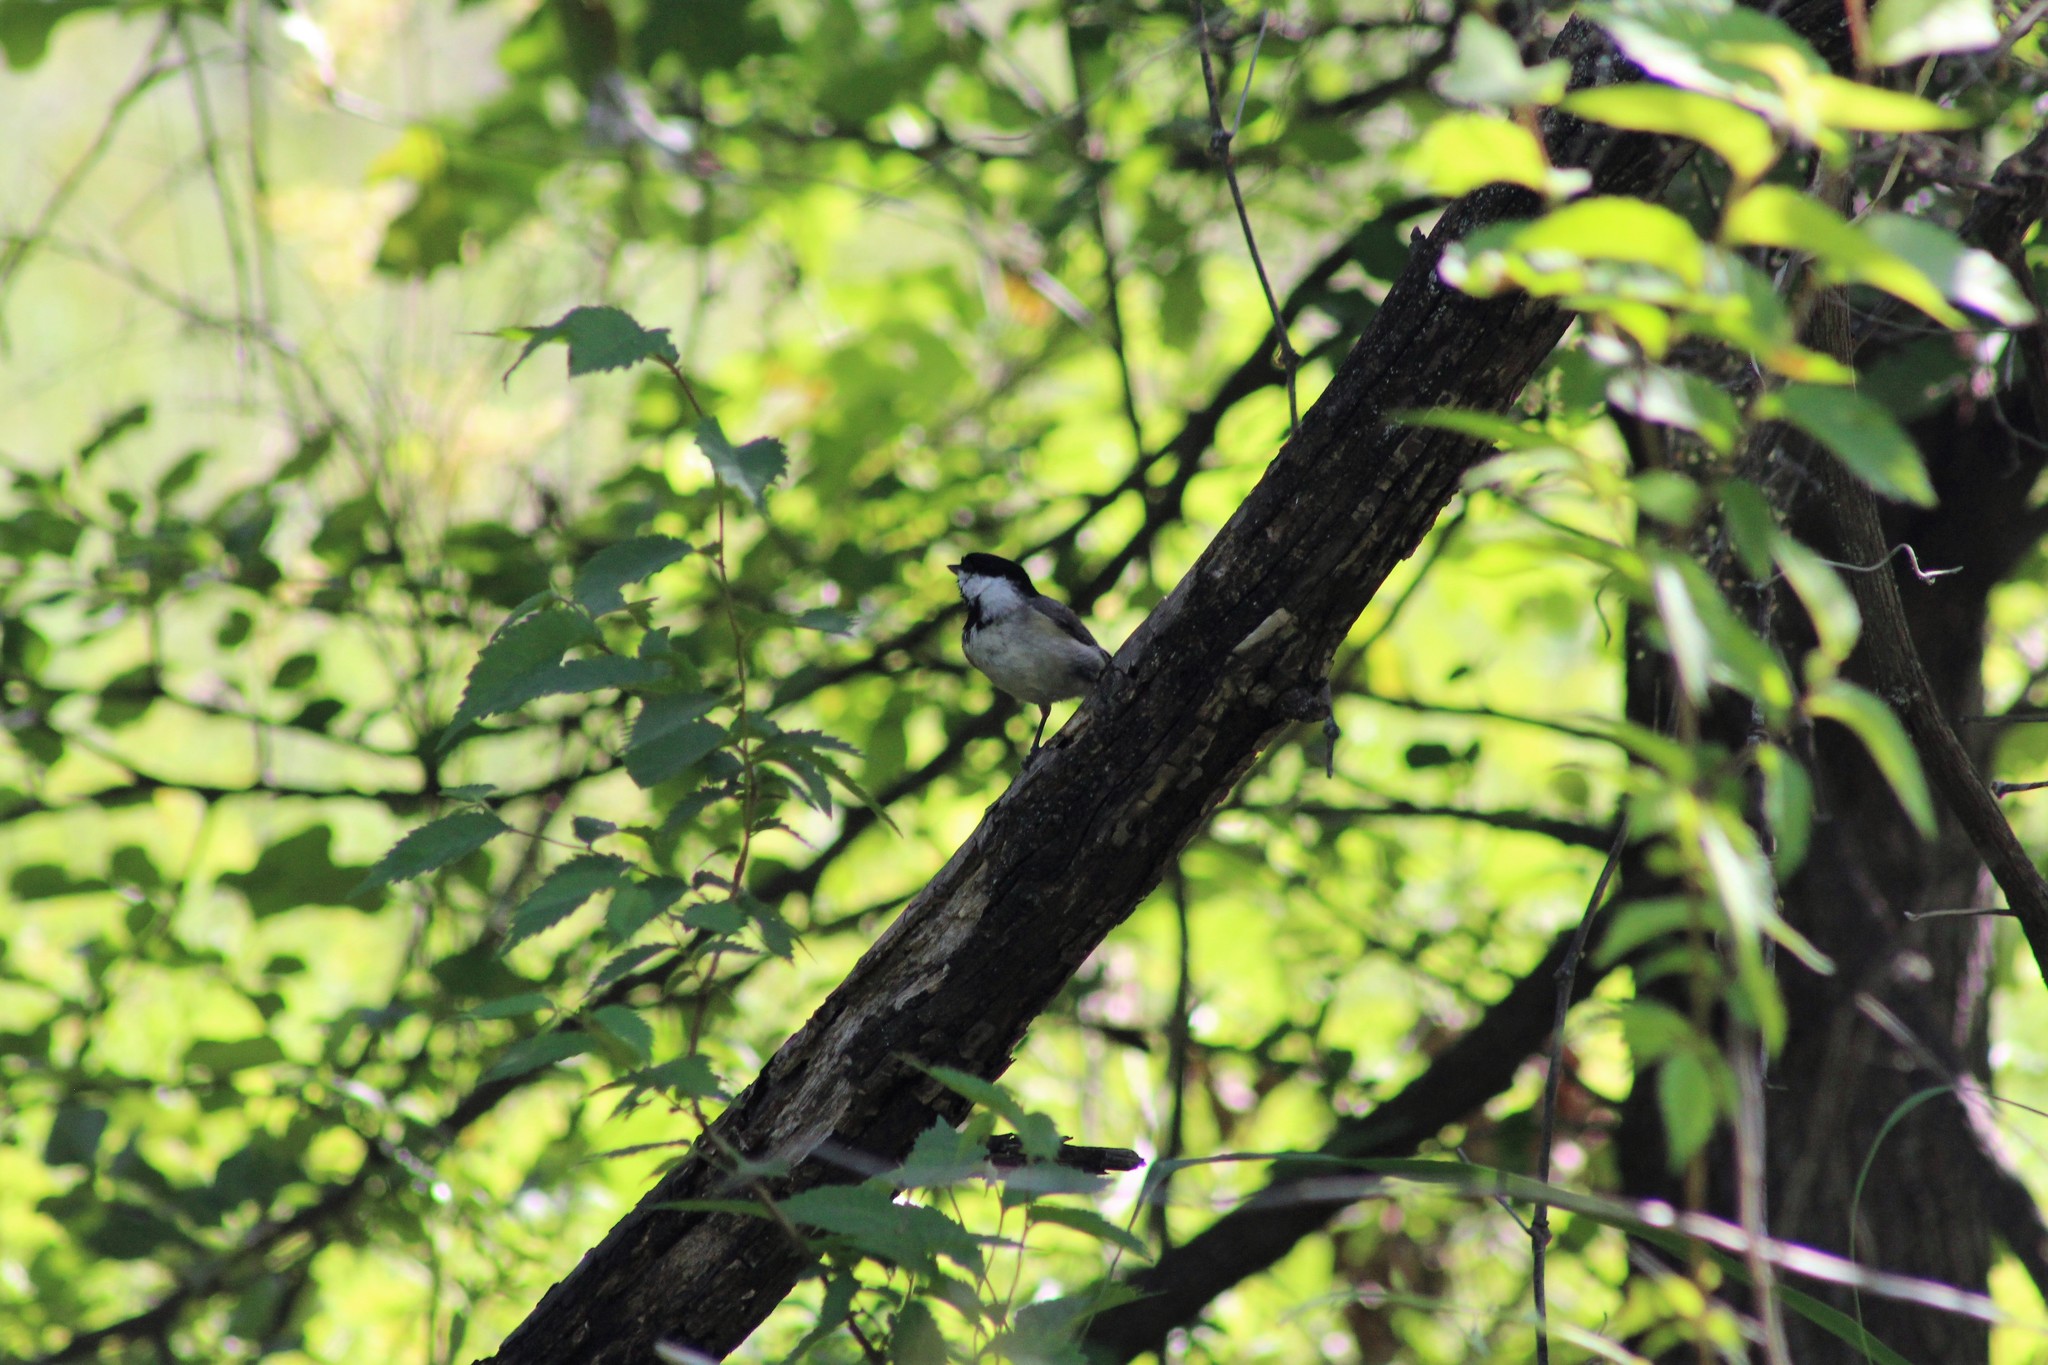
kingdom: Animalia
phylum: Chordata
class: Aves
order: Passeriformes
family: Paridae
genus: Poecile
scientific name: Poecile carolinensis
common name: Carolina chickadee
